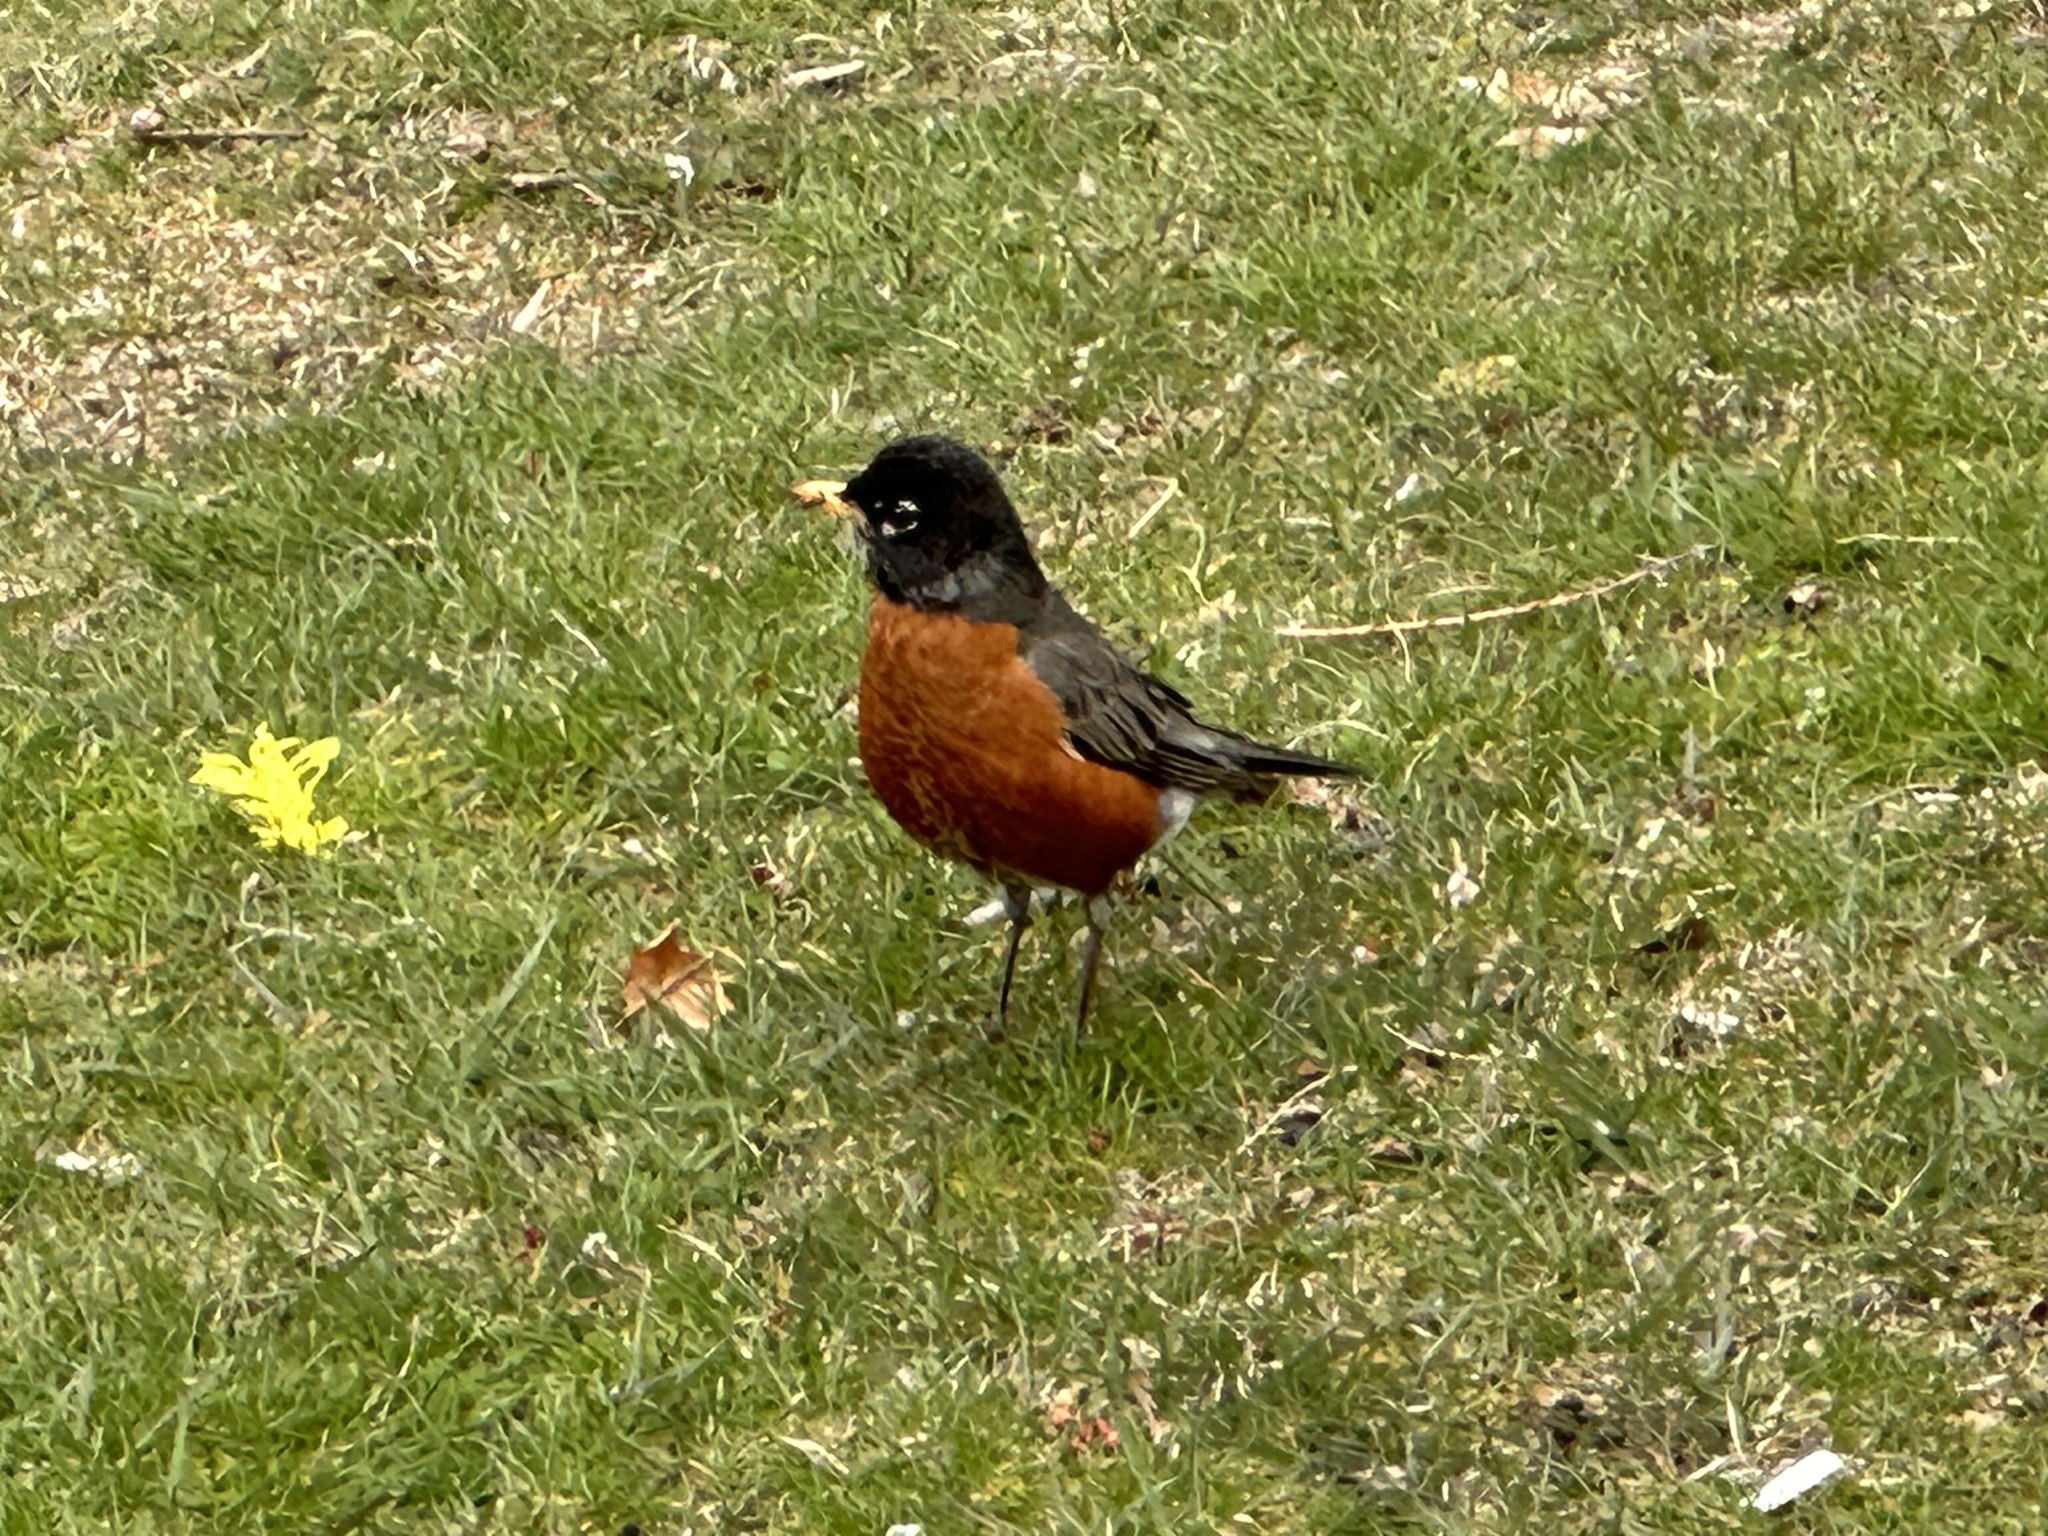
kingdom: Animalia
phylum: Chordata
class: Aves
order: Passeriformes
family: Turdidae
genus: Turdus
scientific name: Turdus migratorius
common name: American robin
